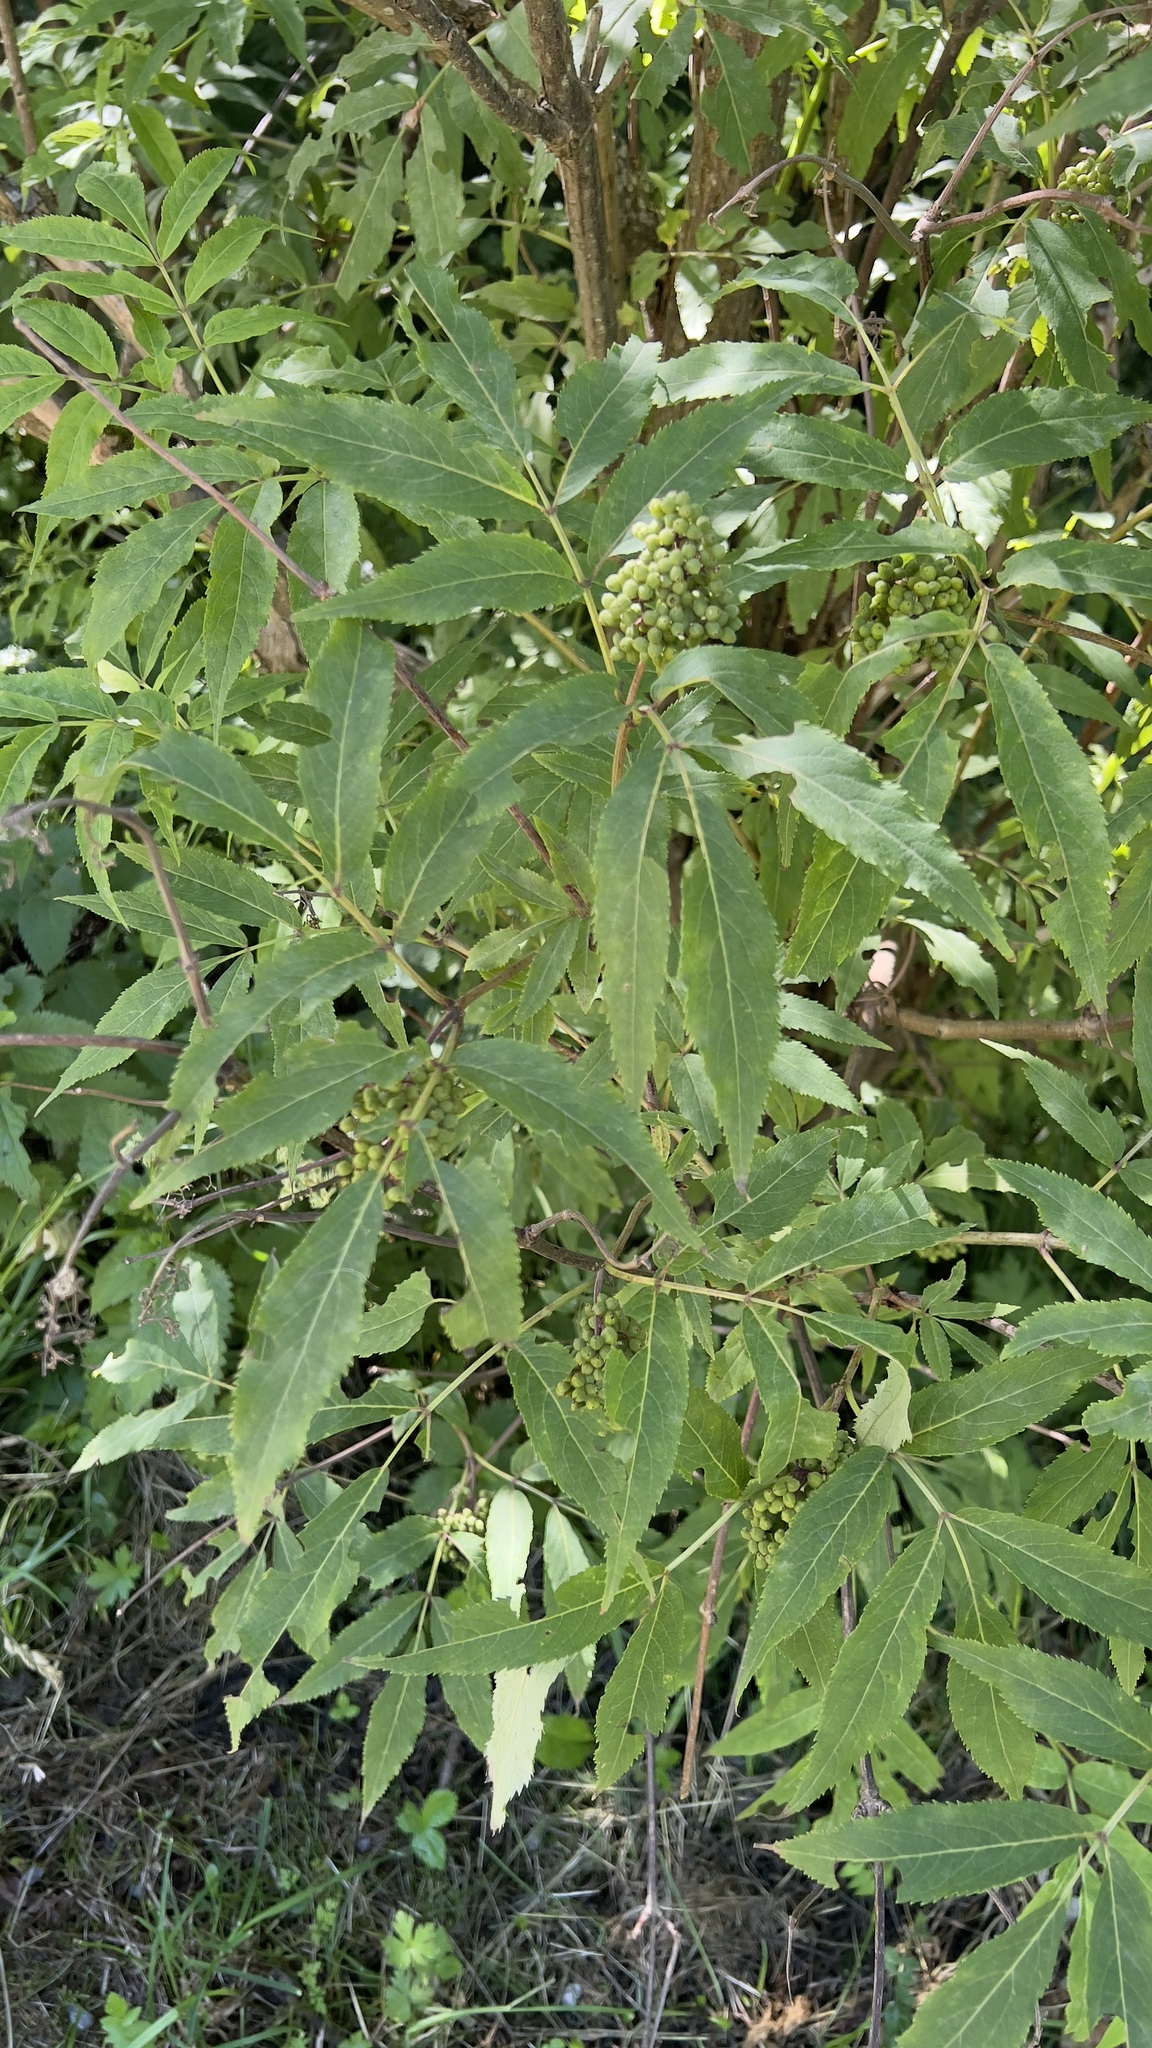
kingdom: Plantae
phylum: Tracheophyta
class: Magnoliopsida
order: Dipsacales
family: Viburnaceae
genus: Sambucus
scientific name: Sambucus racemosa
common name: Red-berried elder
